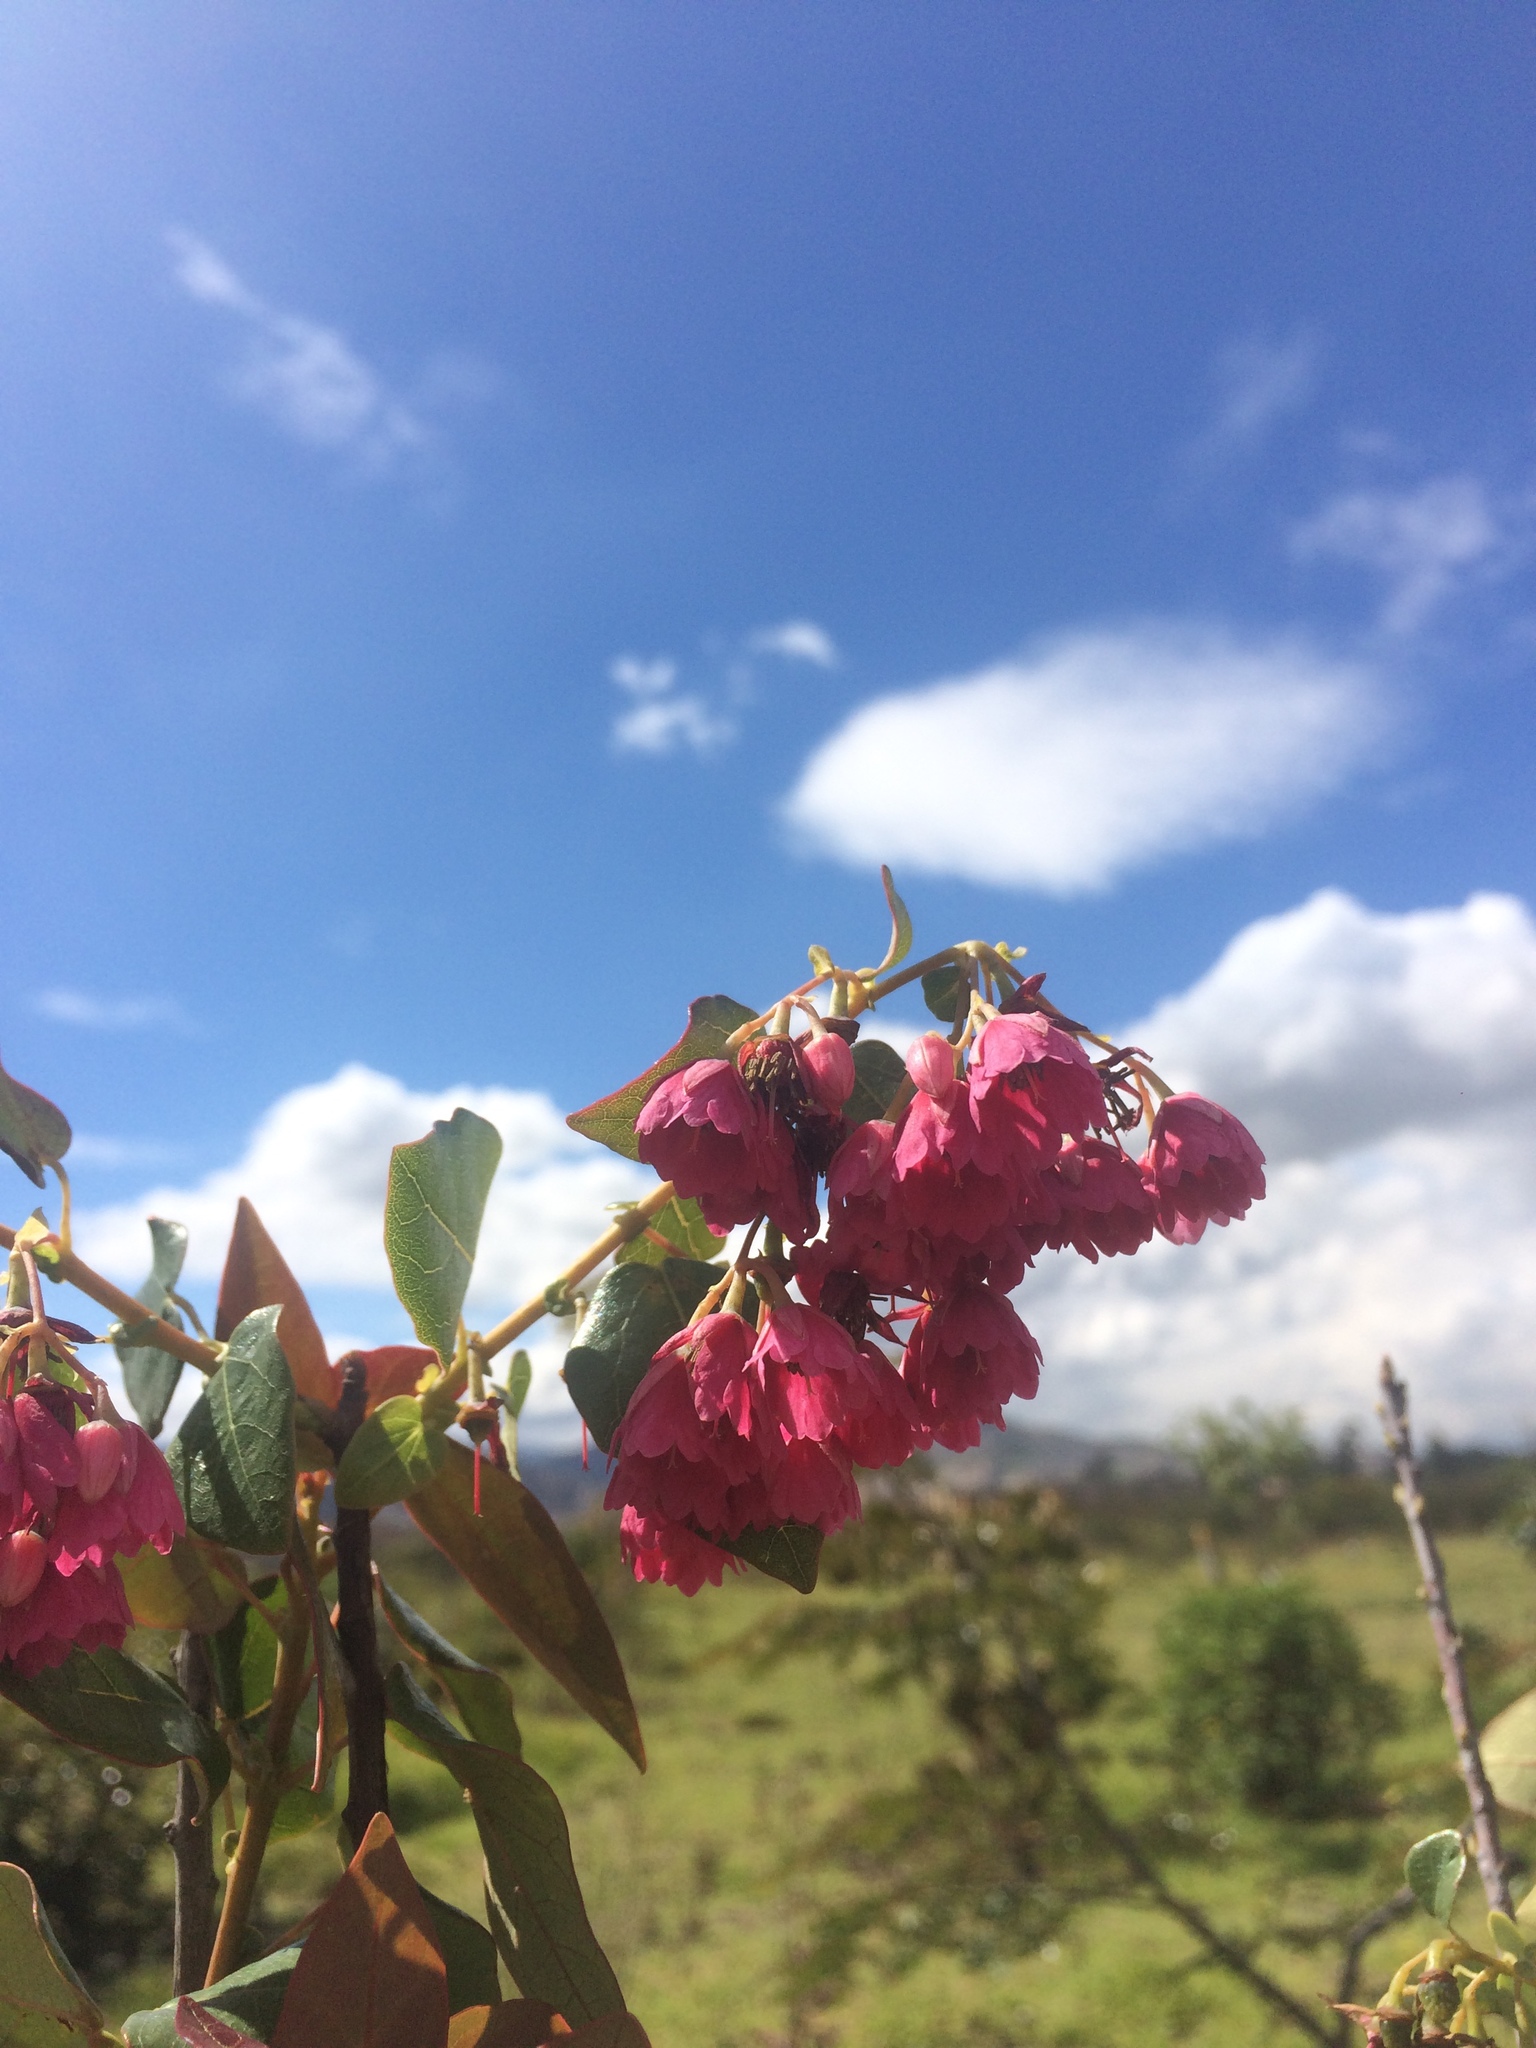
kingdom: Plantae
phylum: Tracheophyta
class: Magnoliopsida
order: Oxalidales
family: Elaeocarpaceae
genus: Vallea
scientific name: Vallea stipularis
